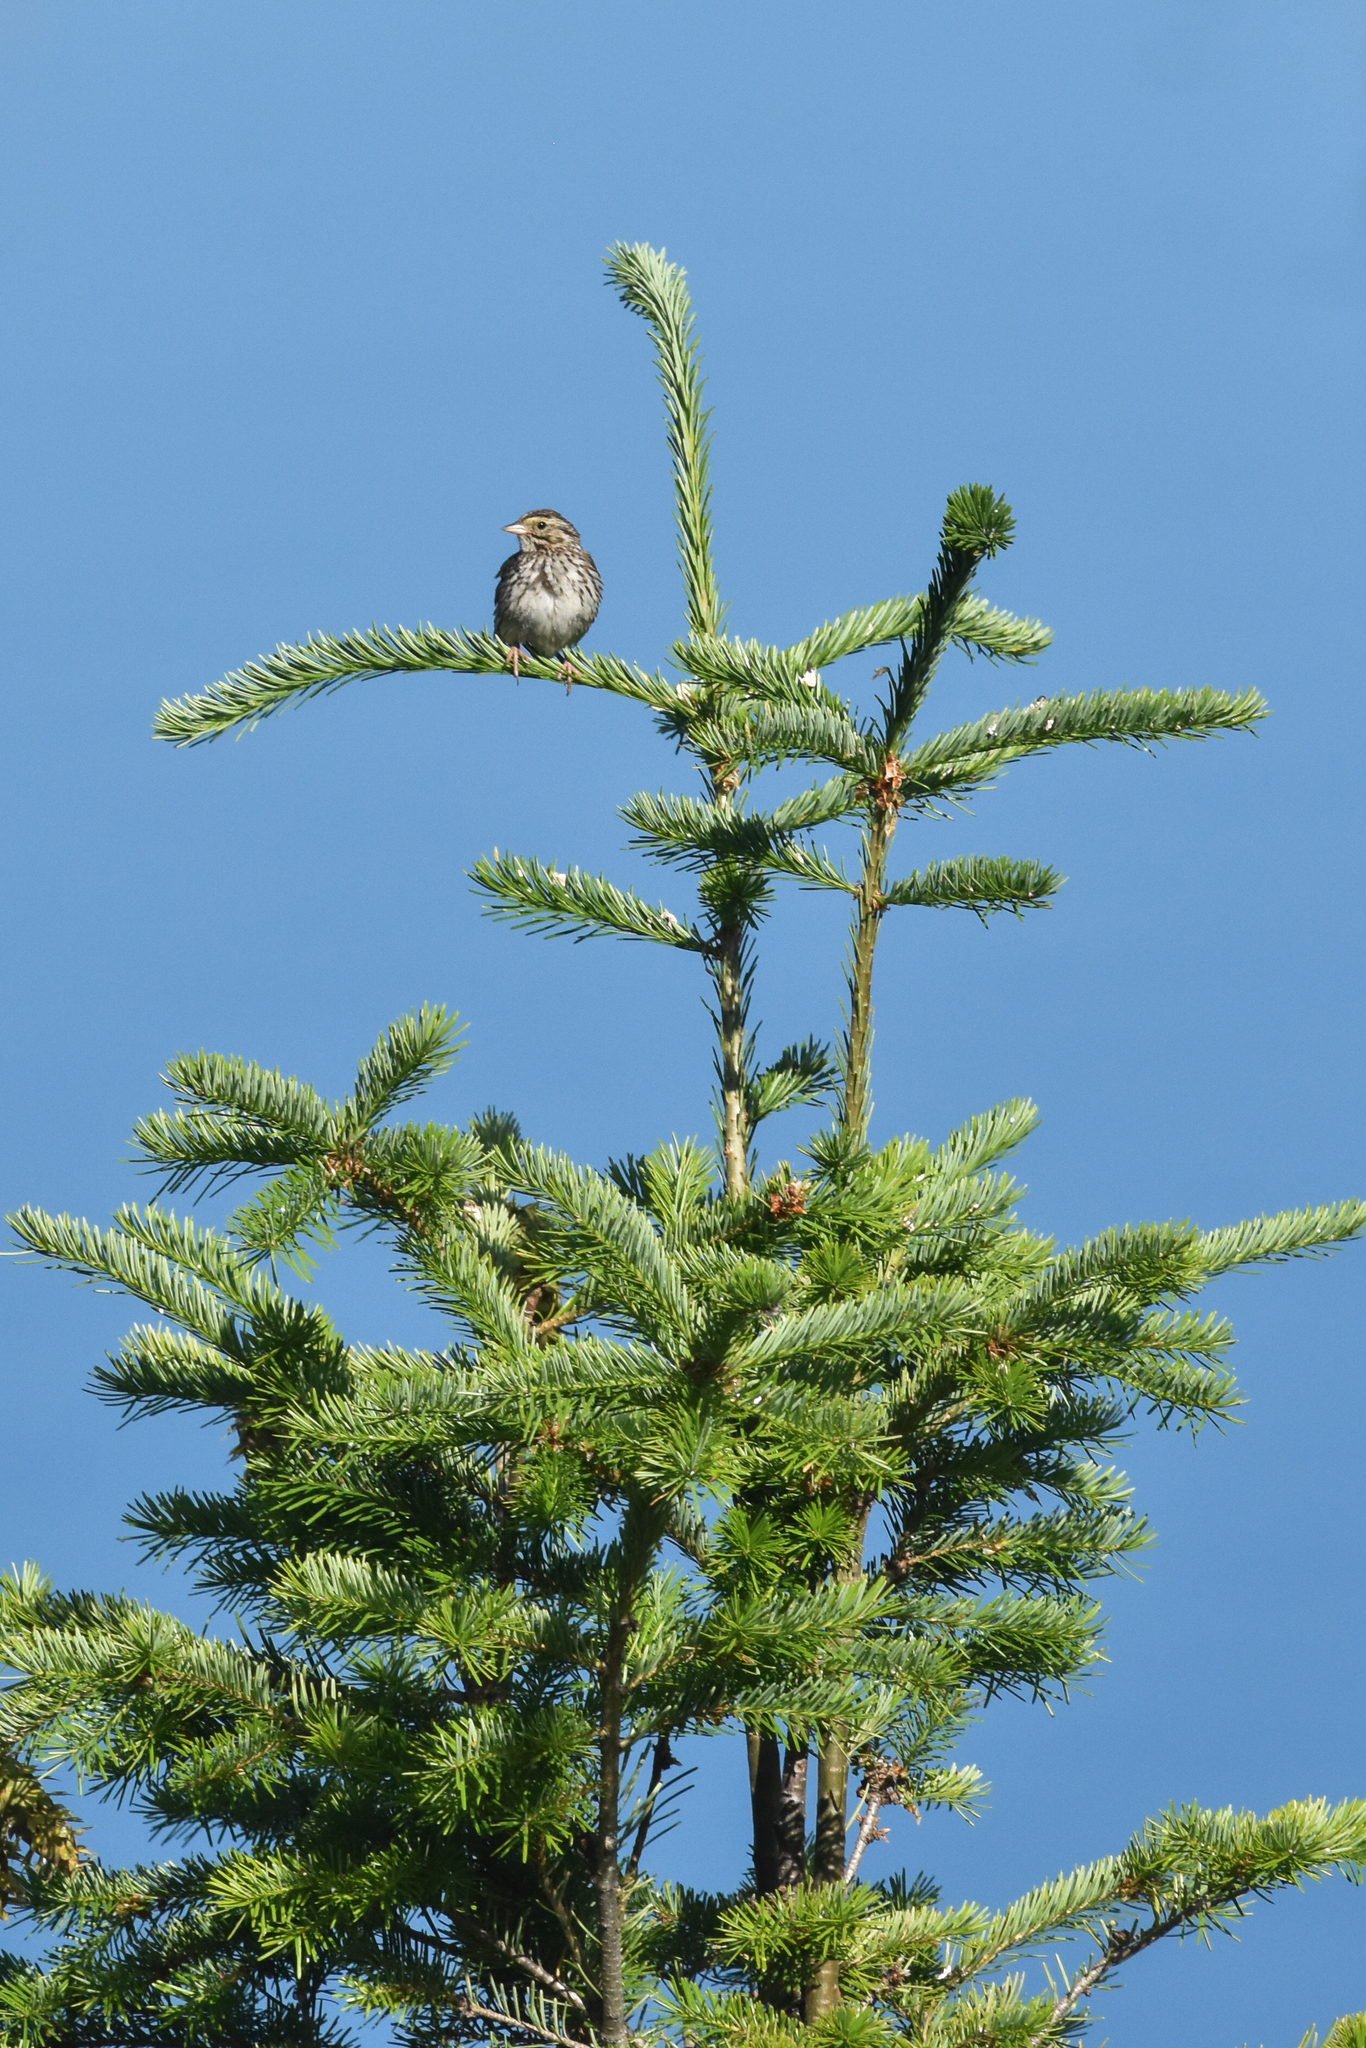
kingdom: Animalia
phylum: Chordata
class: Aves
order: Passeriformes
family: Passerellidae
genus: Passerculus
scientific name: Passerculus sandwichensis
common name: Savannah sparrow
